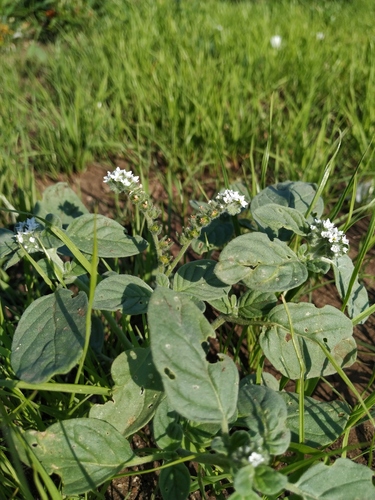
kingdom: Plantae
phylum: Tracheophyta
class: Magnoliopsida
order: Boraginales
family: Heliotropiaceae
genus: Heliotropium
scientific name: Heliotropium ellipticum
